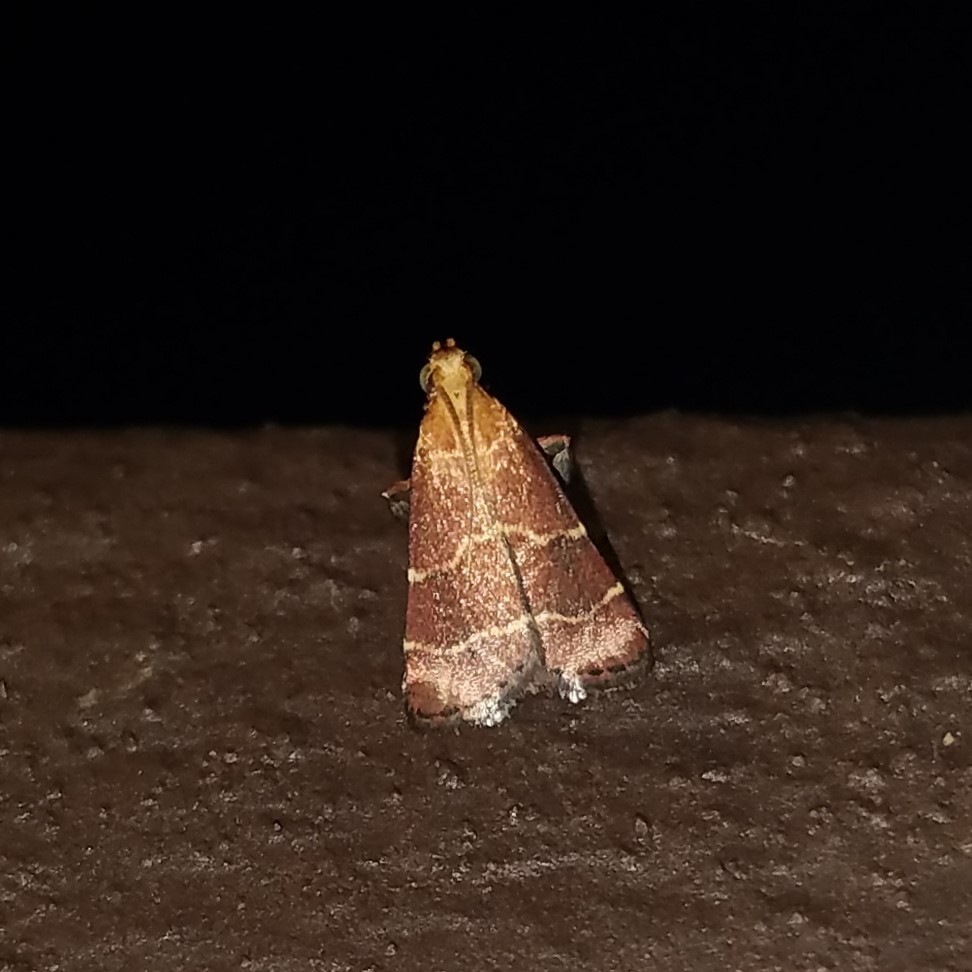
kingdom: Animalia
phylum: Arthropoda
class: Insecta
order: Lepidoptera
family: Pyralidae
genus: Arta
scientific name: Arta statalis
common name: Posturing arta moth
